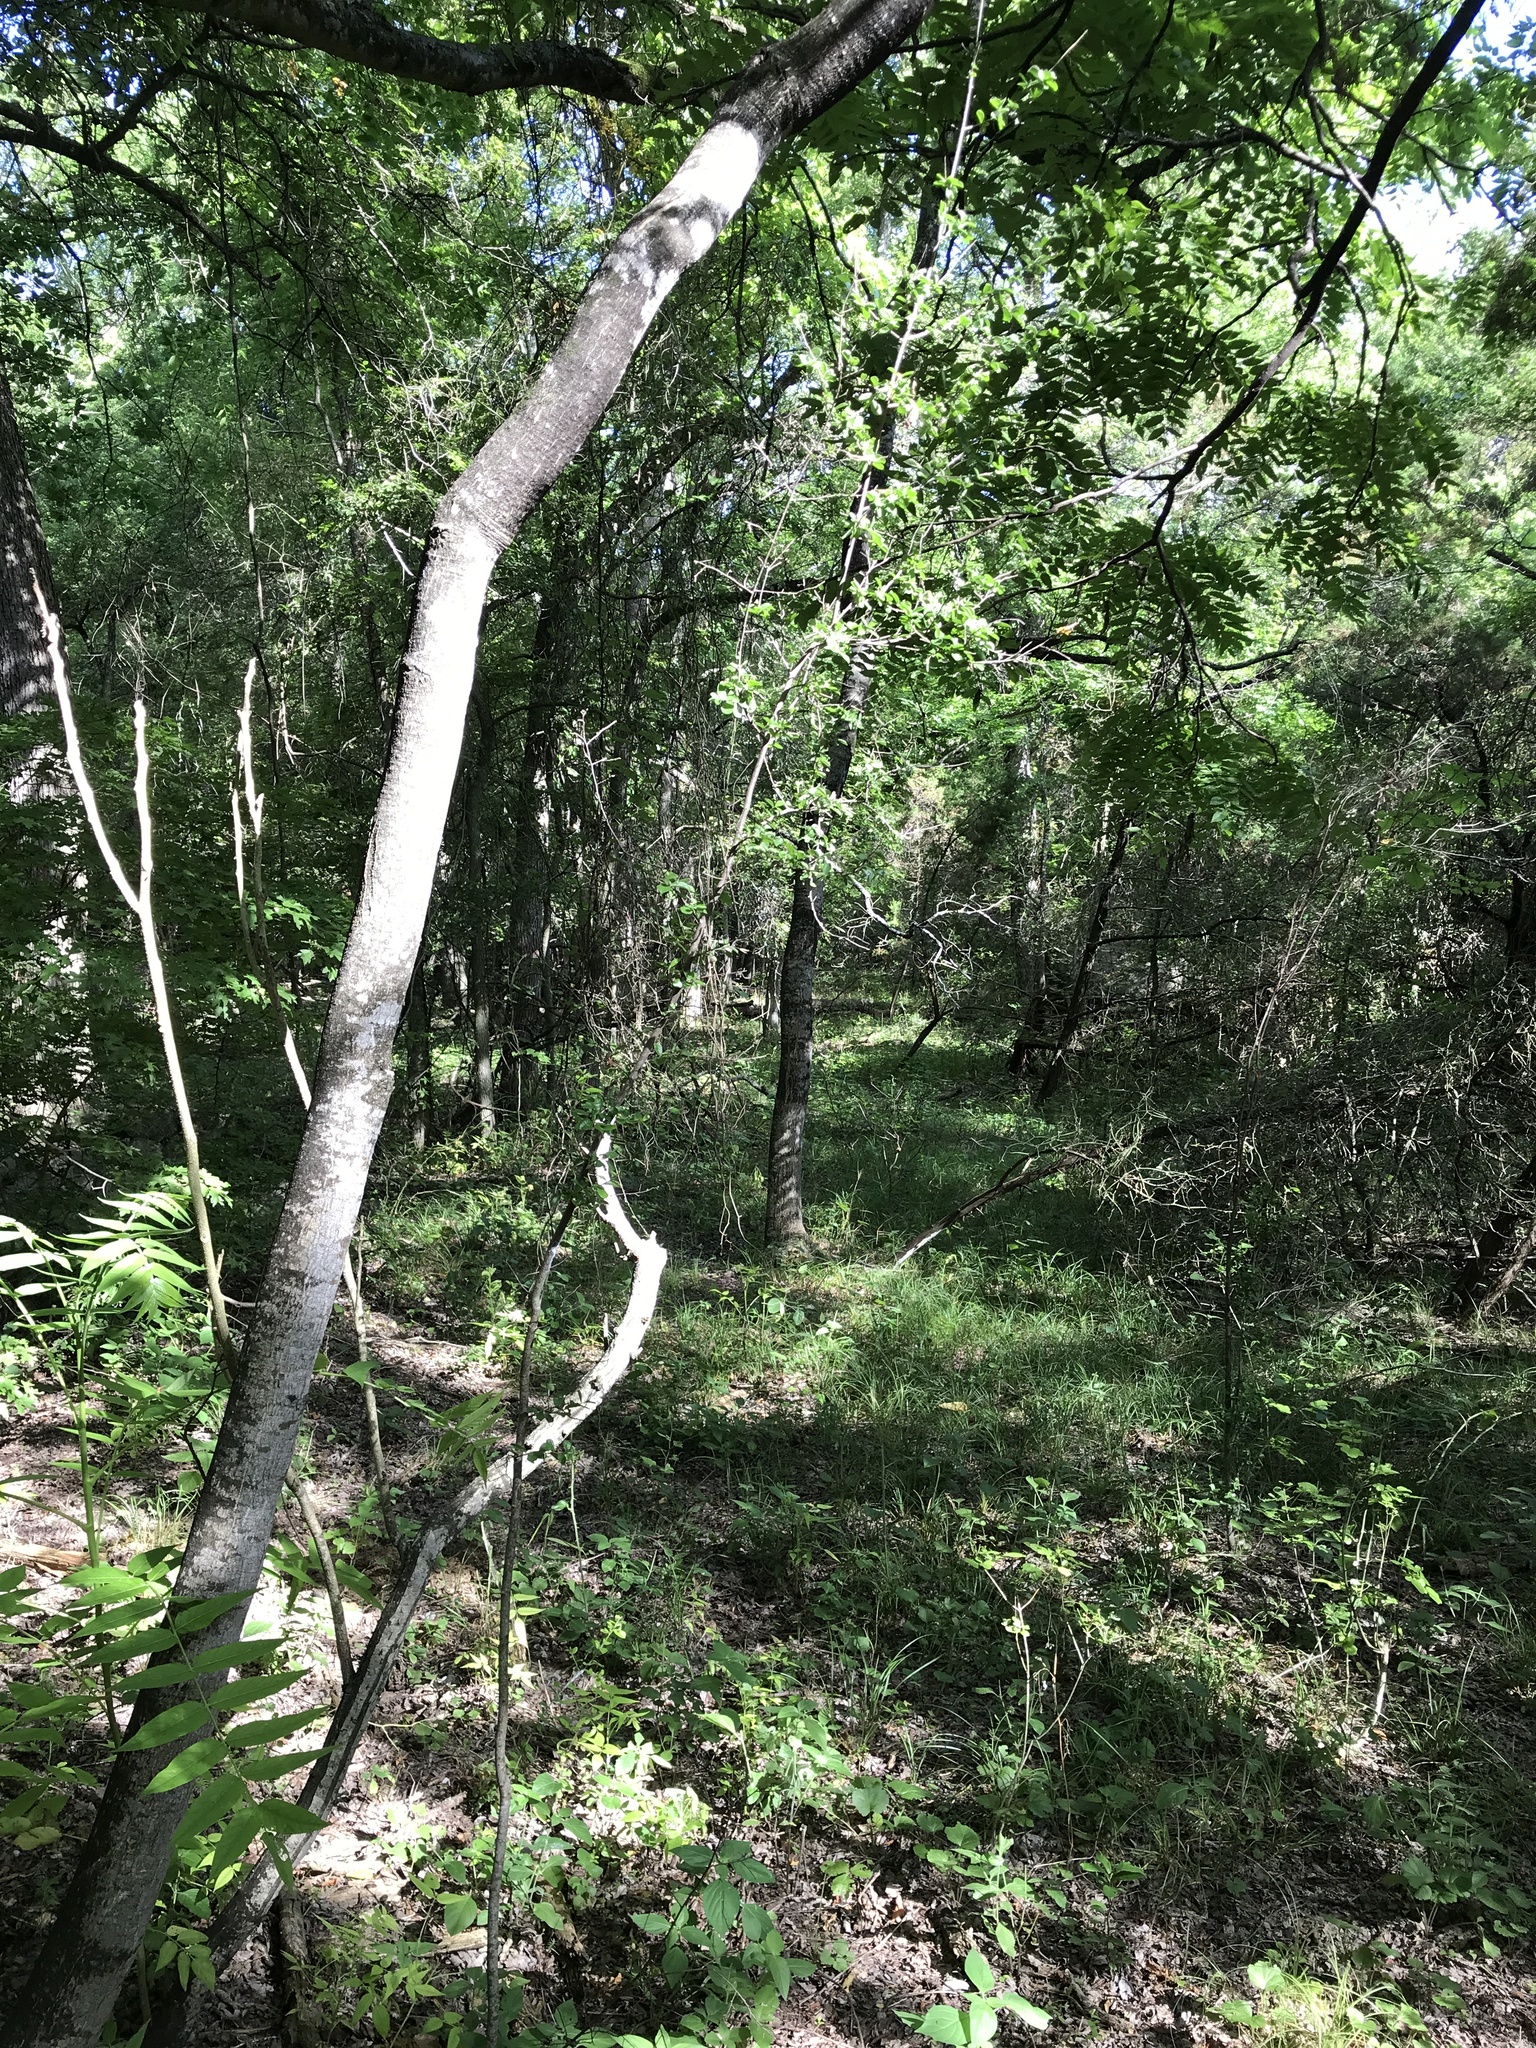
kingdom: Plantae
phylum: Tracheophyta
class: Magnoliopsida
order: Ericales
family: Ebenaceae
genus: Diospyros
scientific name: Diospyros texana
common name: Texas persimmon
